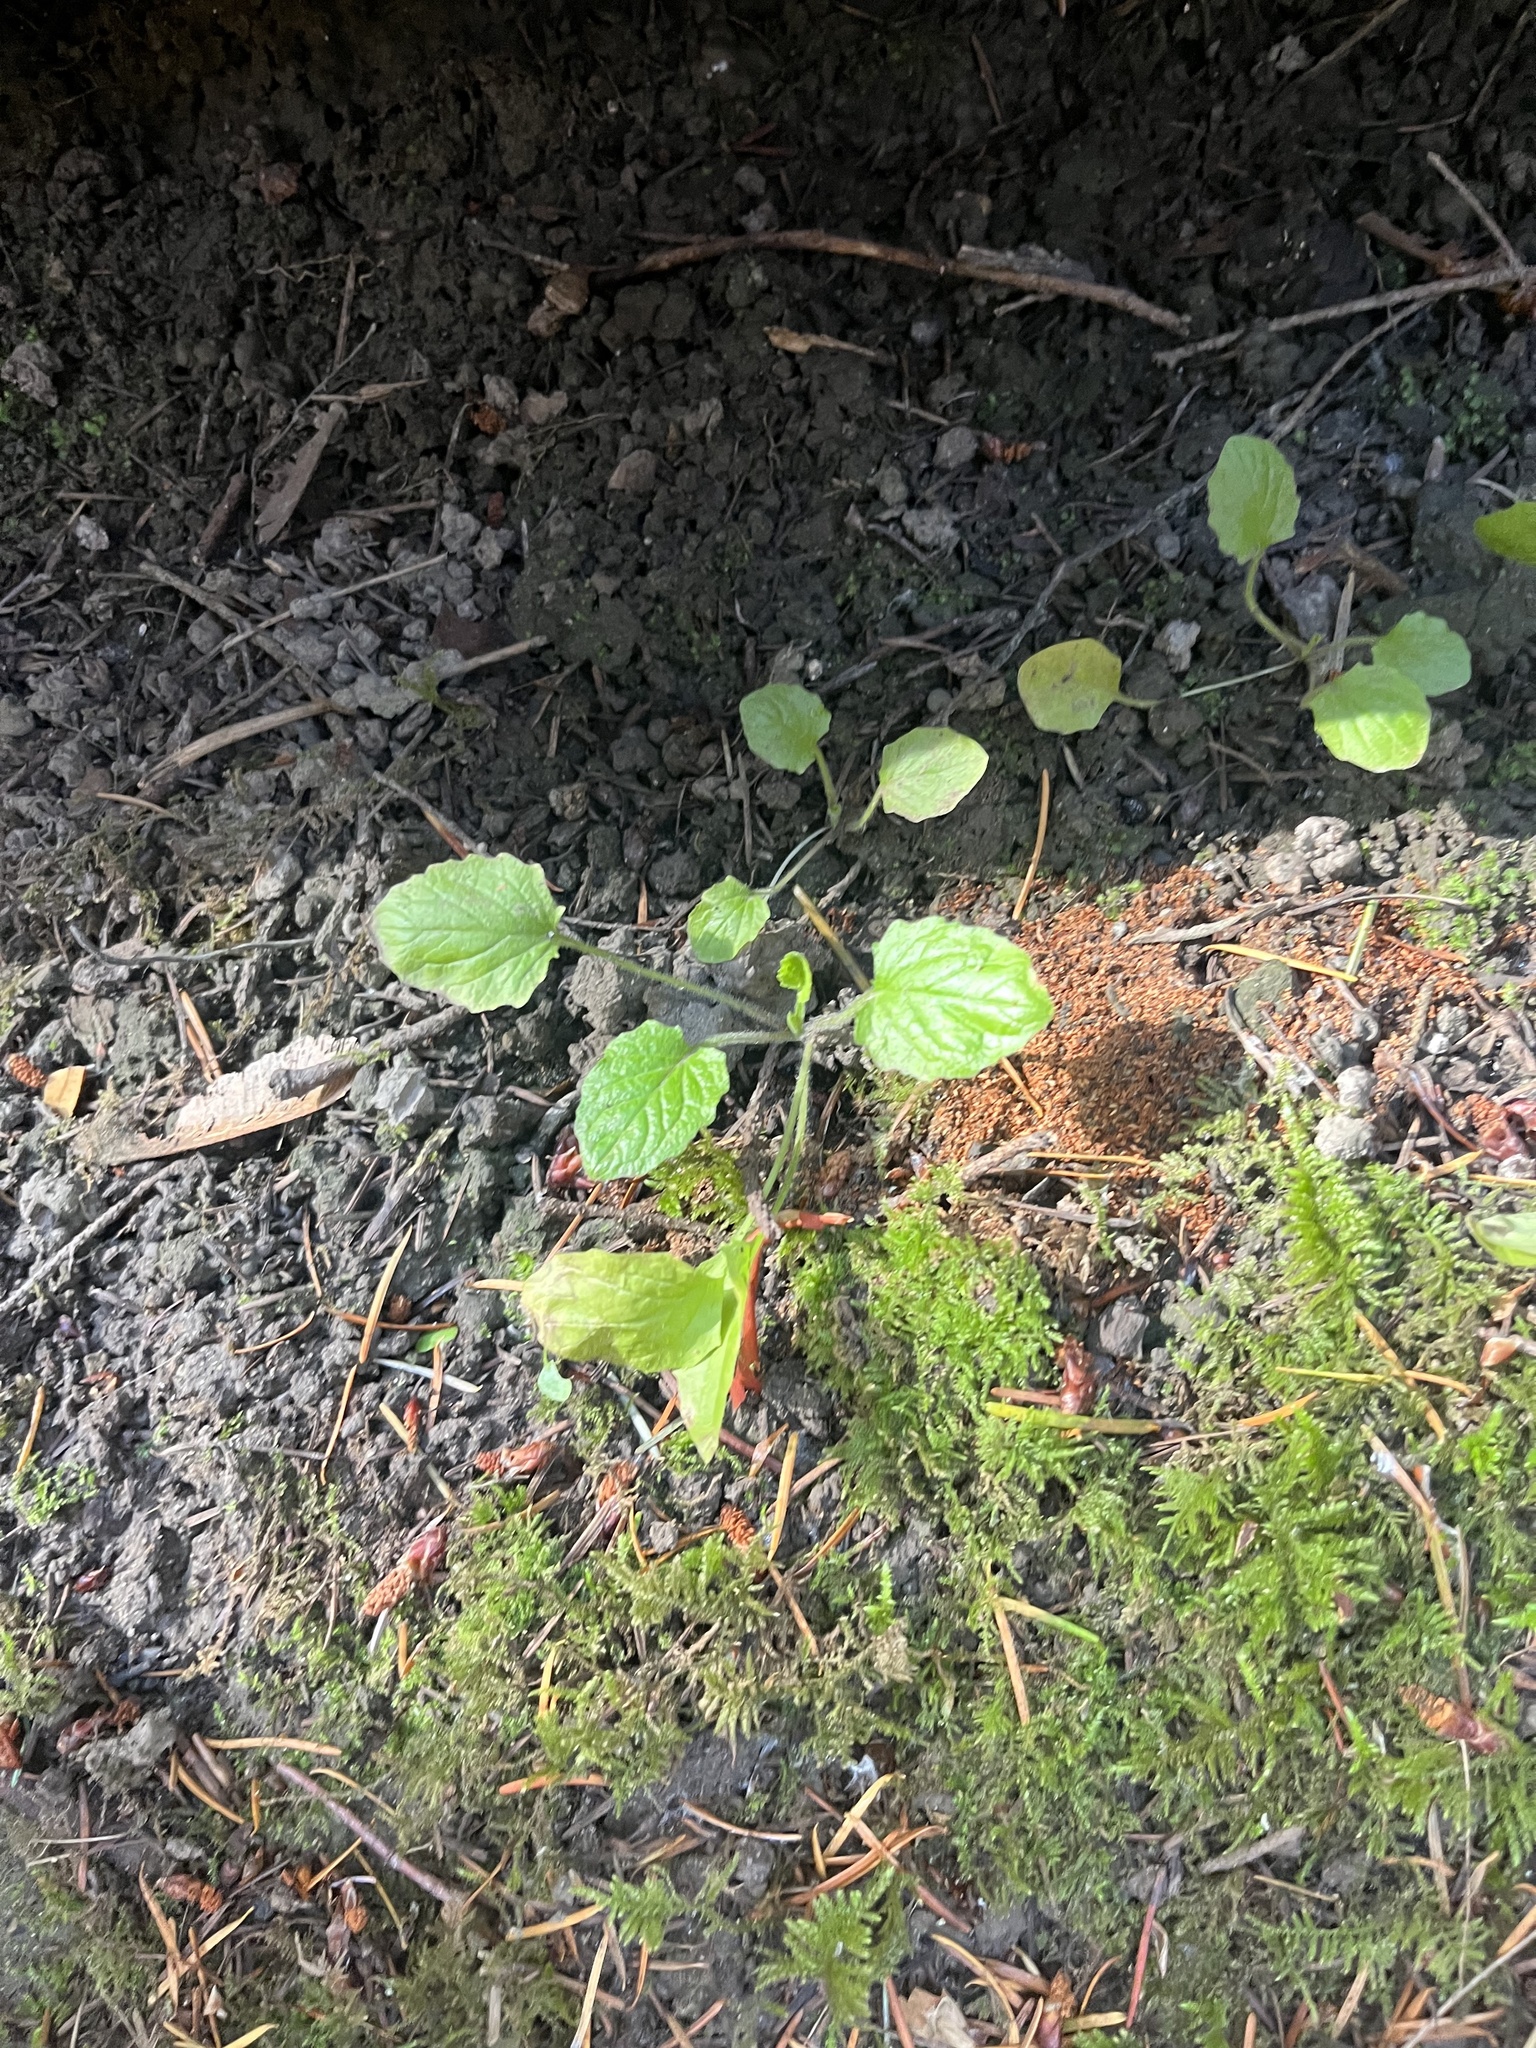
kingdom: Plantae
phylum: Tracheophyta
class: Magnoliopsida
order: Asterales
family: Asteraceae
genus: Lapsana
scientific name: Lapsana communis
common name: Nipplewort
